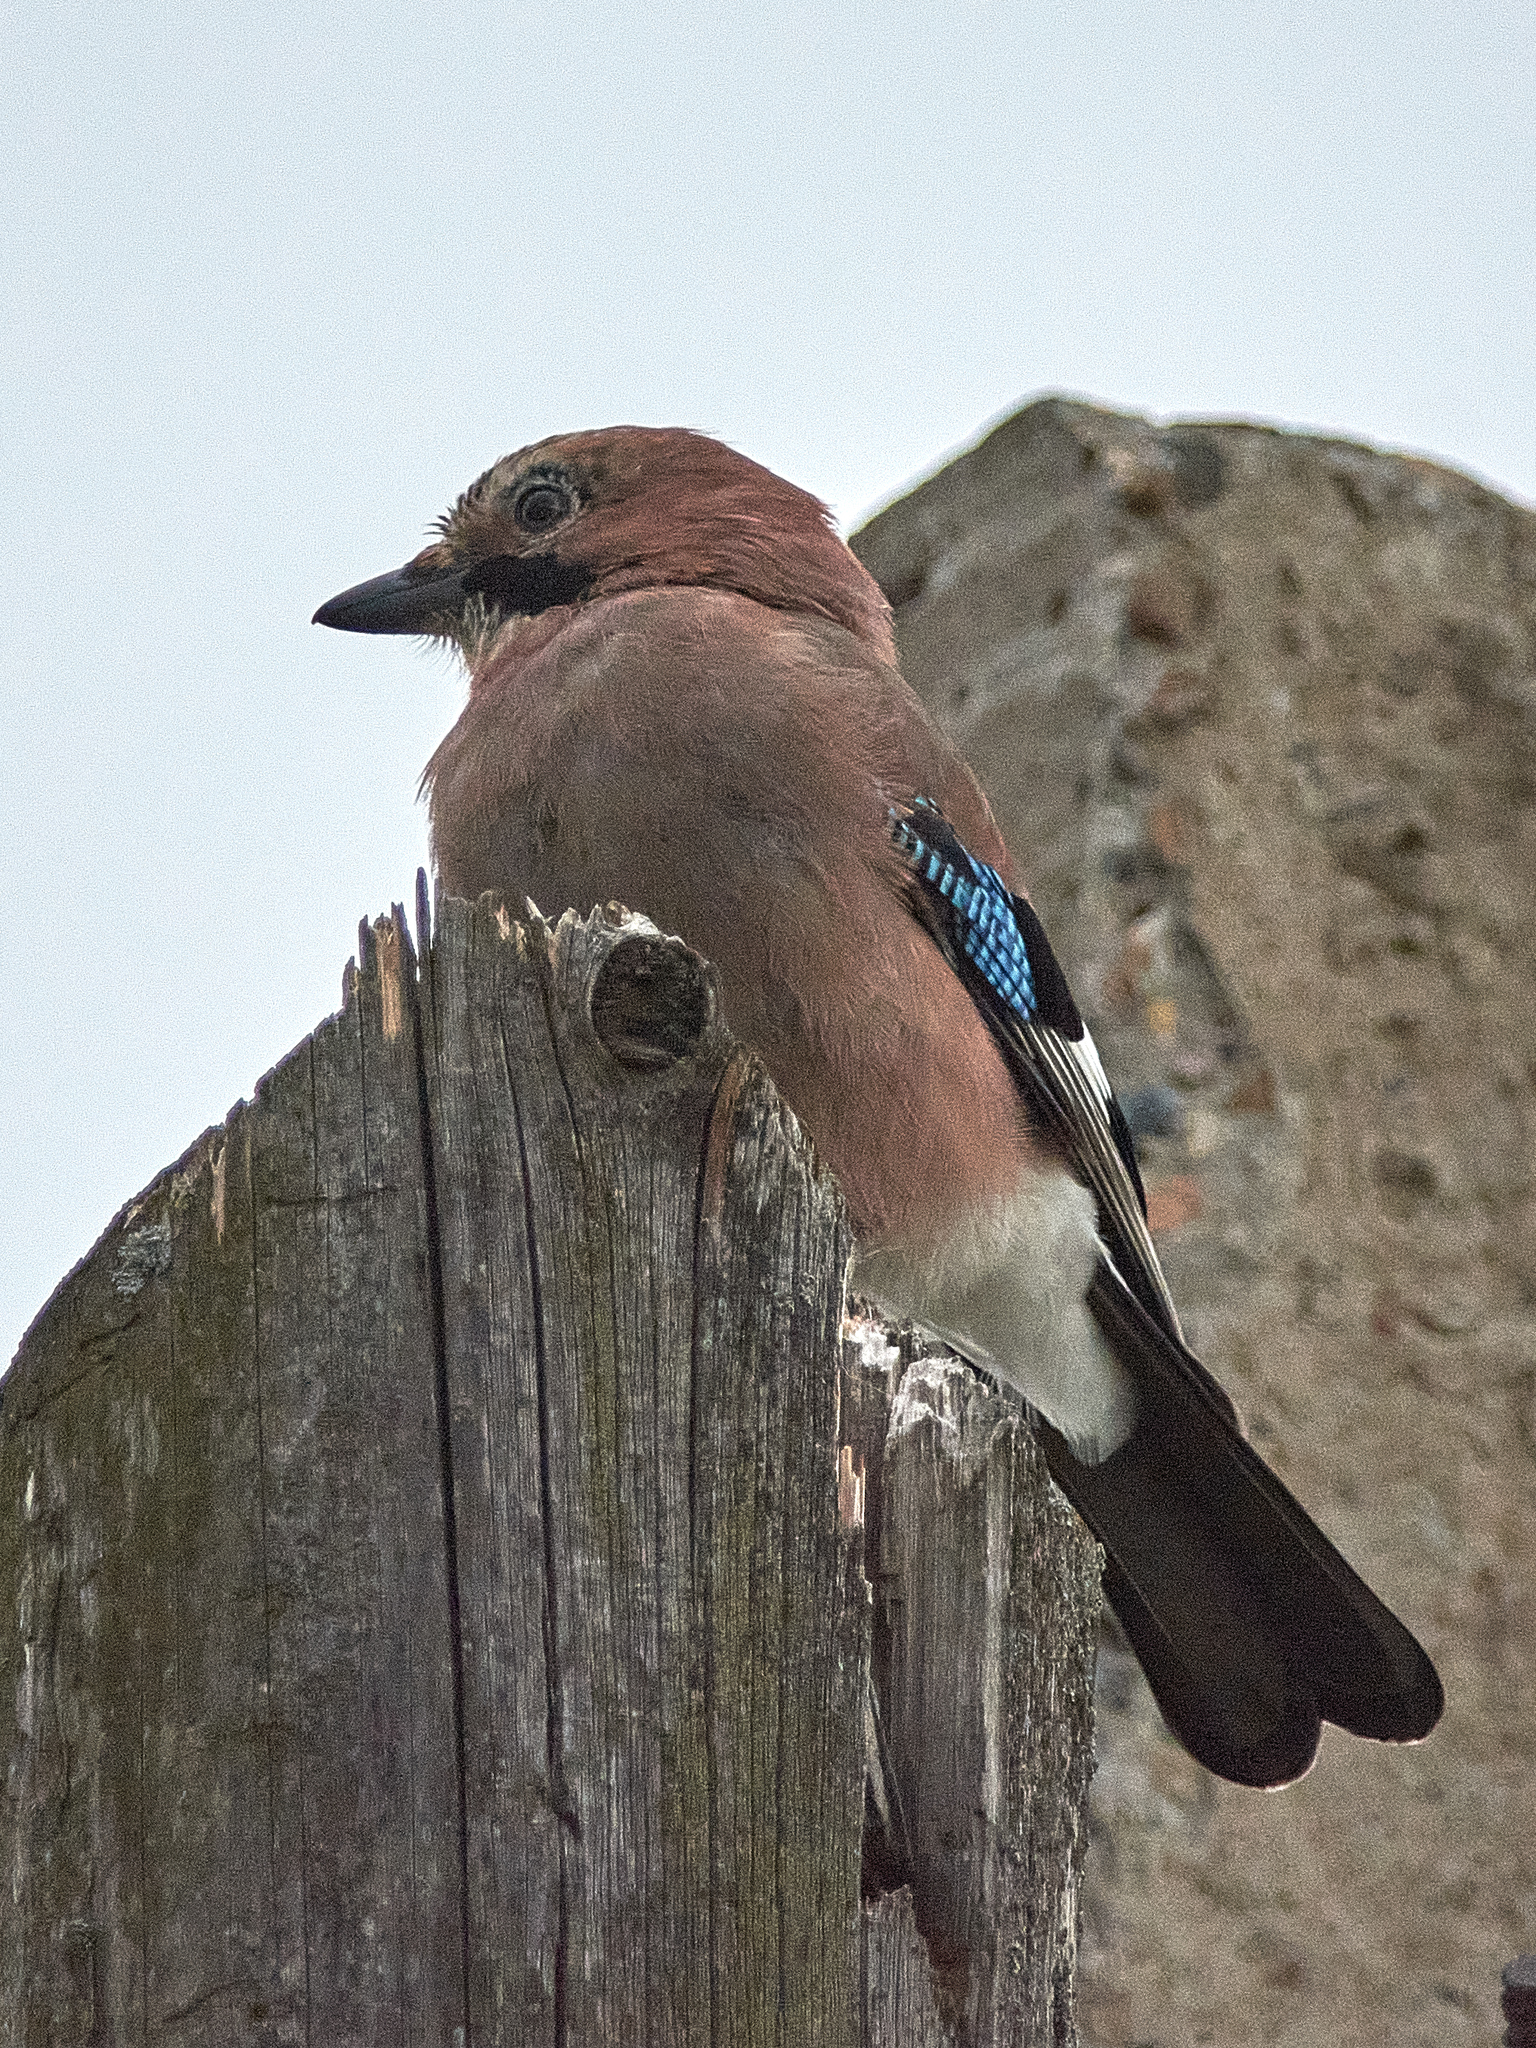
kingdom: Animalia
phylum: Chordata
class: Aves
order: Passeriformes
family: Corvidae
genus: Garrulus
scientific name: Garrulus glandarius
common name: Eurasian jay
